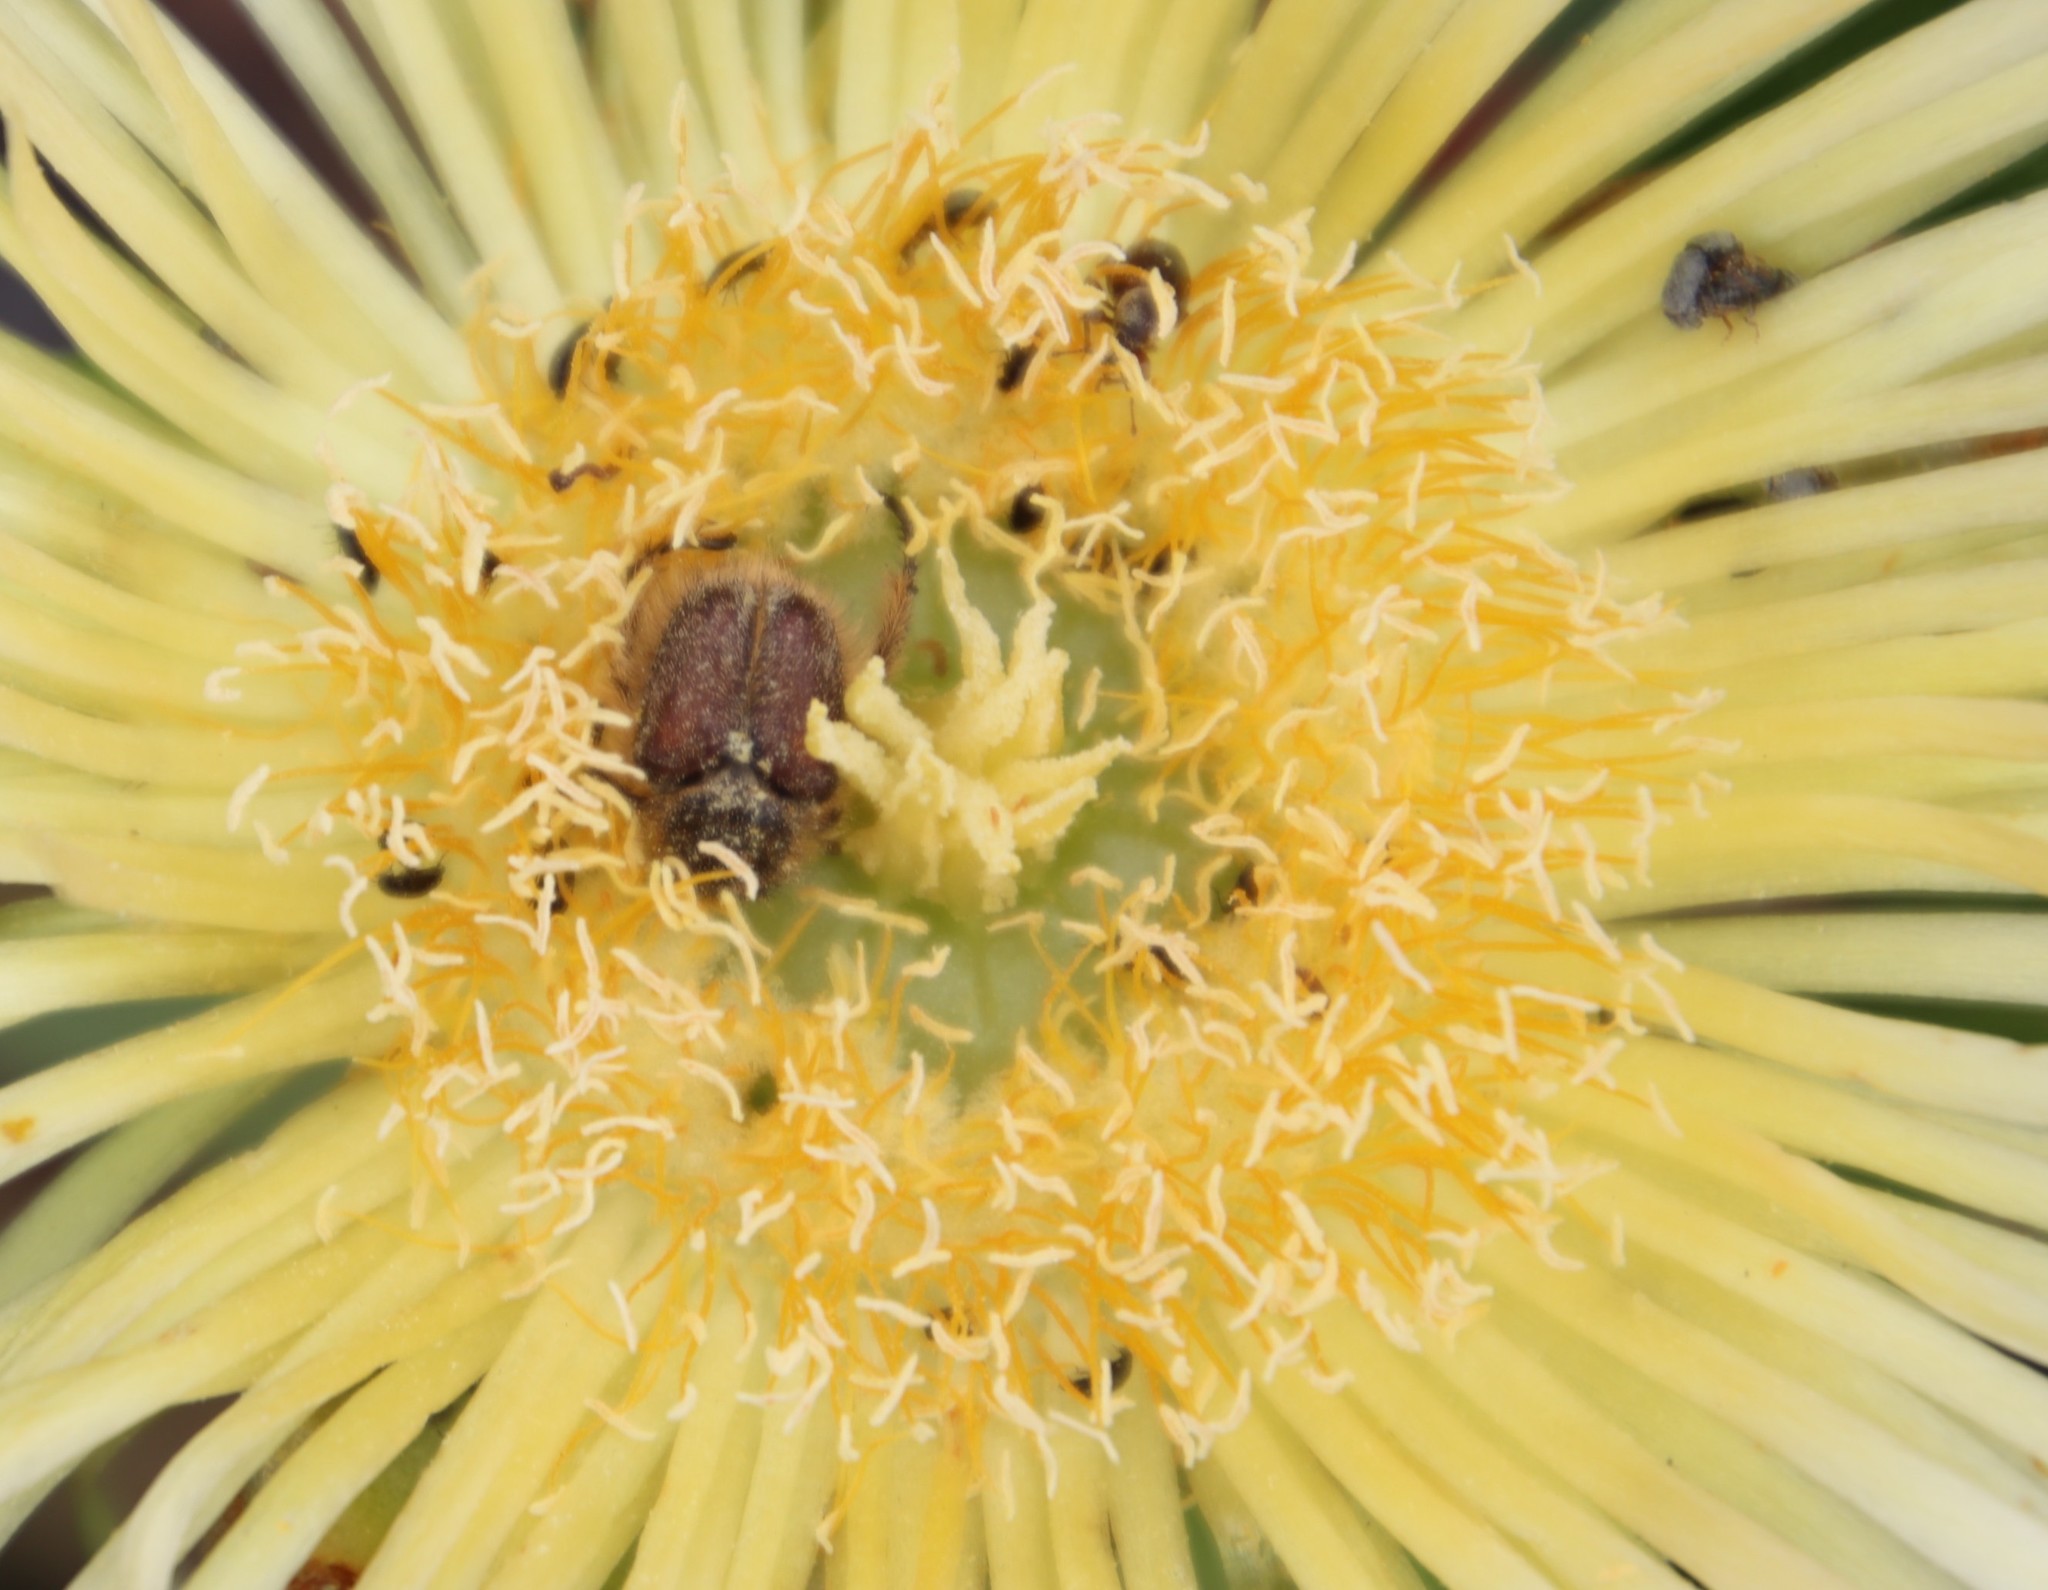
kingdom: Plantae
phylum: Tracheophyta
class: Magnoliopsida
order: Caryophyllales
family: Aizoaceae
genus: Carpobrotus
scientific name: Carpobrotus edulis
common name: Hottentot-fig
